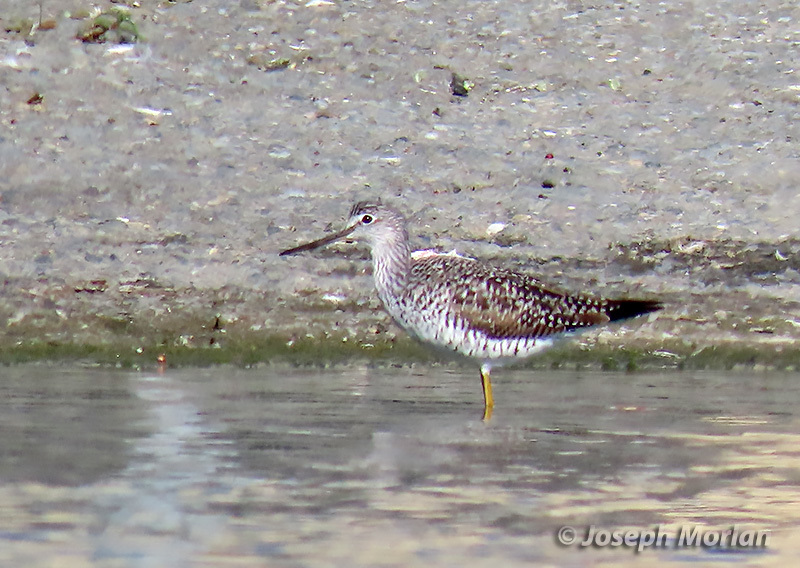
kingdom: Animalia
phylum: Chordata
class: Aves
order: Charadriiformes
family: Scolopacidae
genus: Tringa
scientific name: Tringa melanoleuca
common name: Greater yellowlegs
